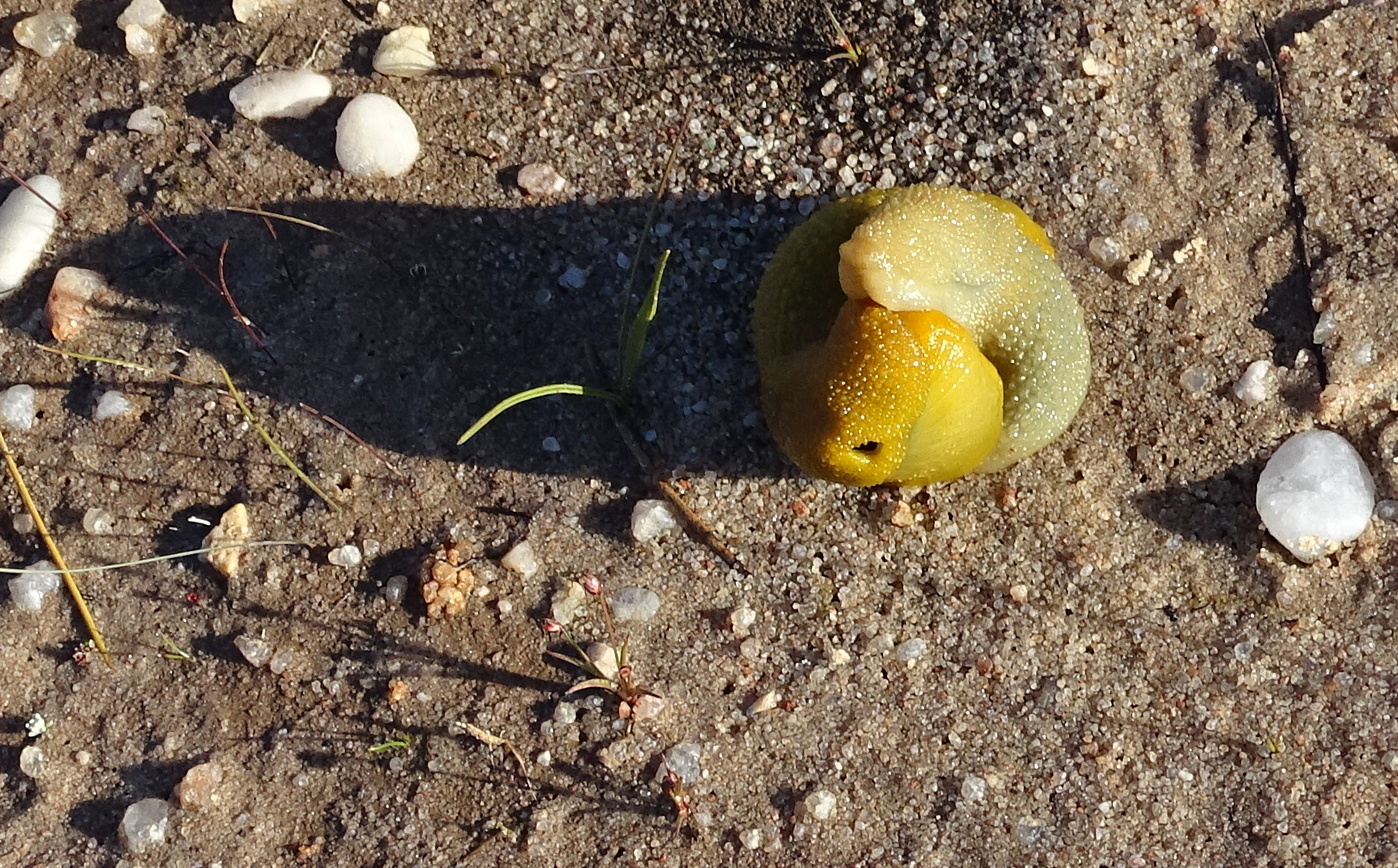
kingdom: Animalia
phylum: Mollusca
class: Gastropoda
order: Stylommatophora
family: Oopeltidae
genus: Oopelta
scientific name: Oopelta granulosa
